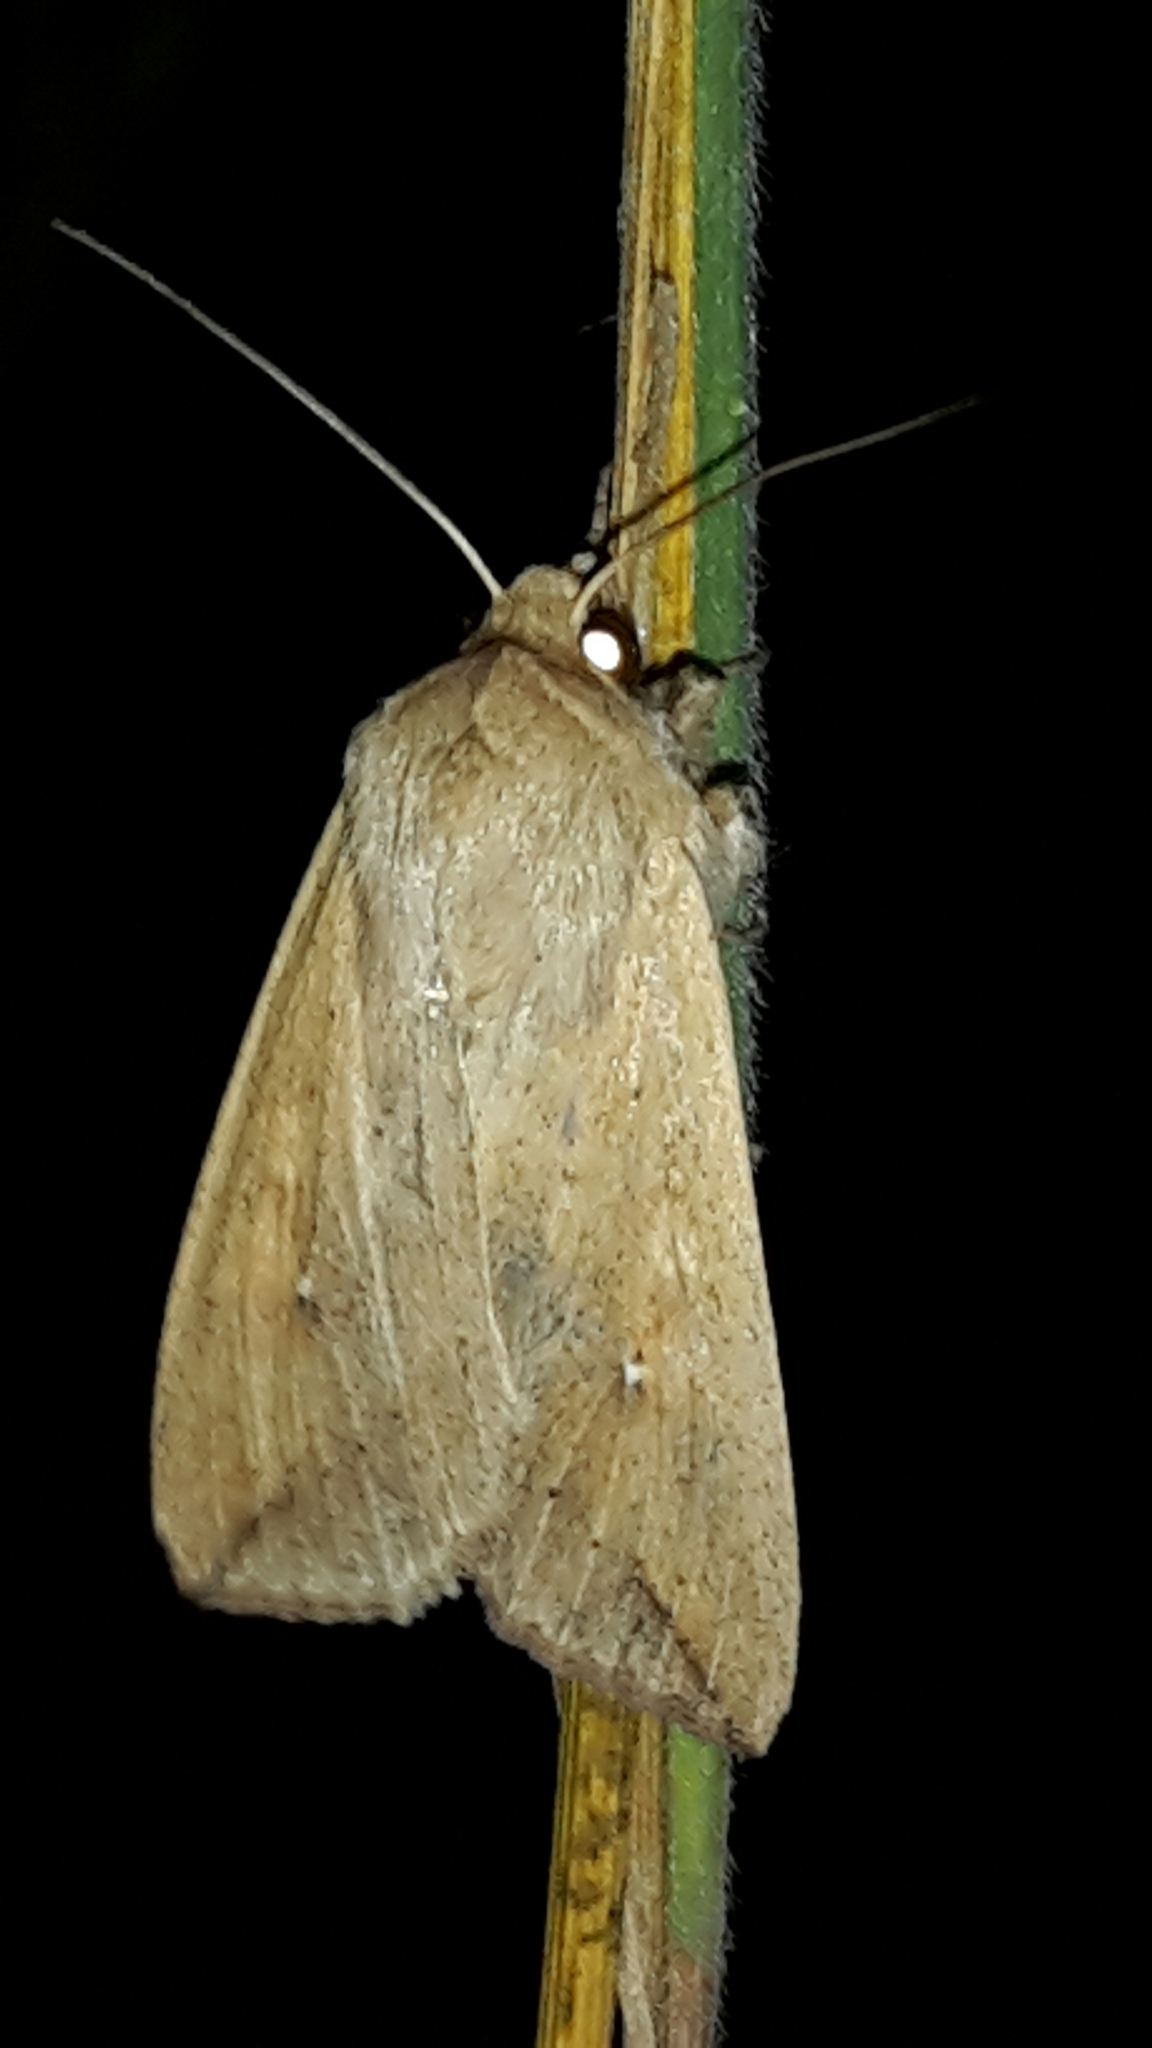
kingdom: Animalia
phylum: Arthropoda
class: Insecta
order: Lepidoptera
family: Noctuidae
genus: Mythimna
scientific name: Mythimna separata
